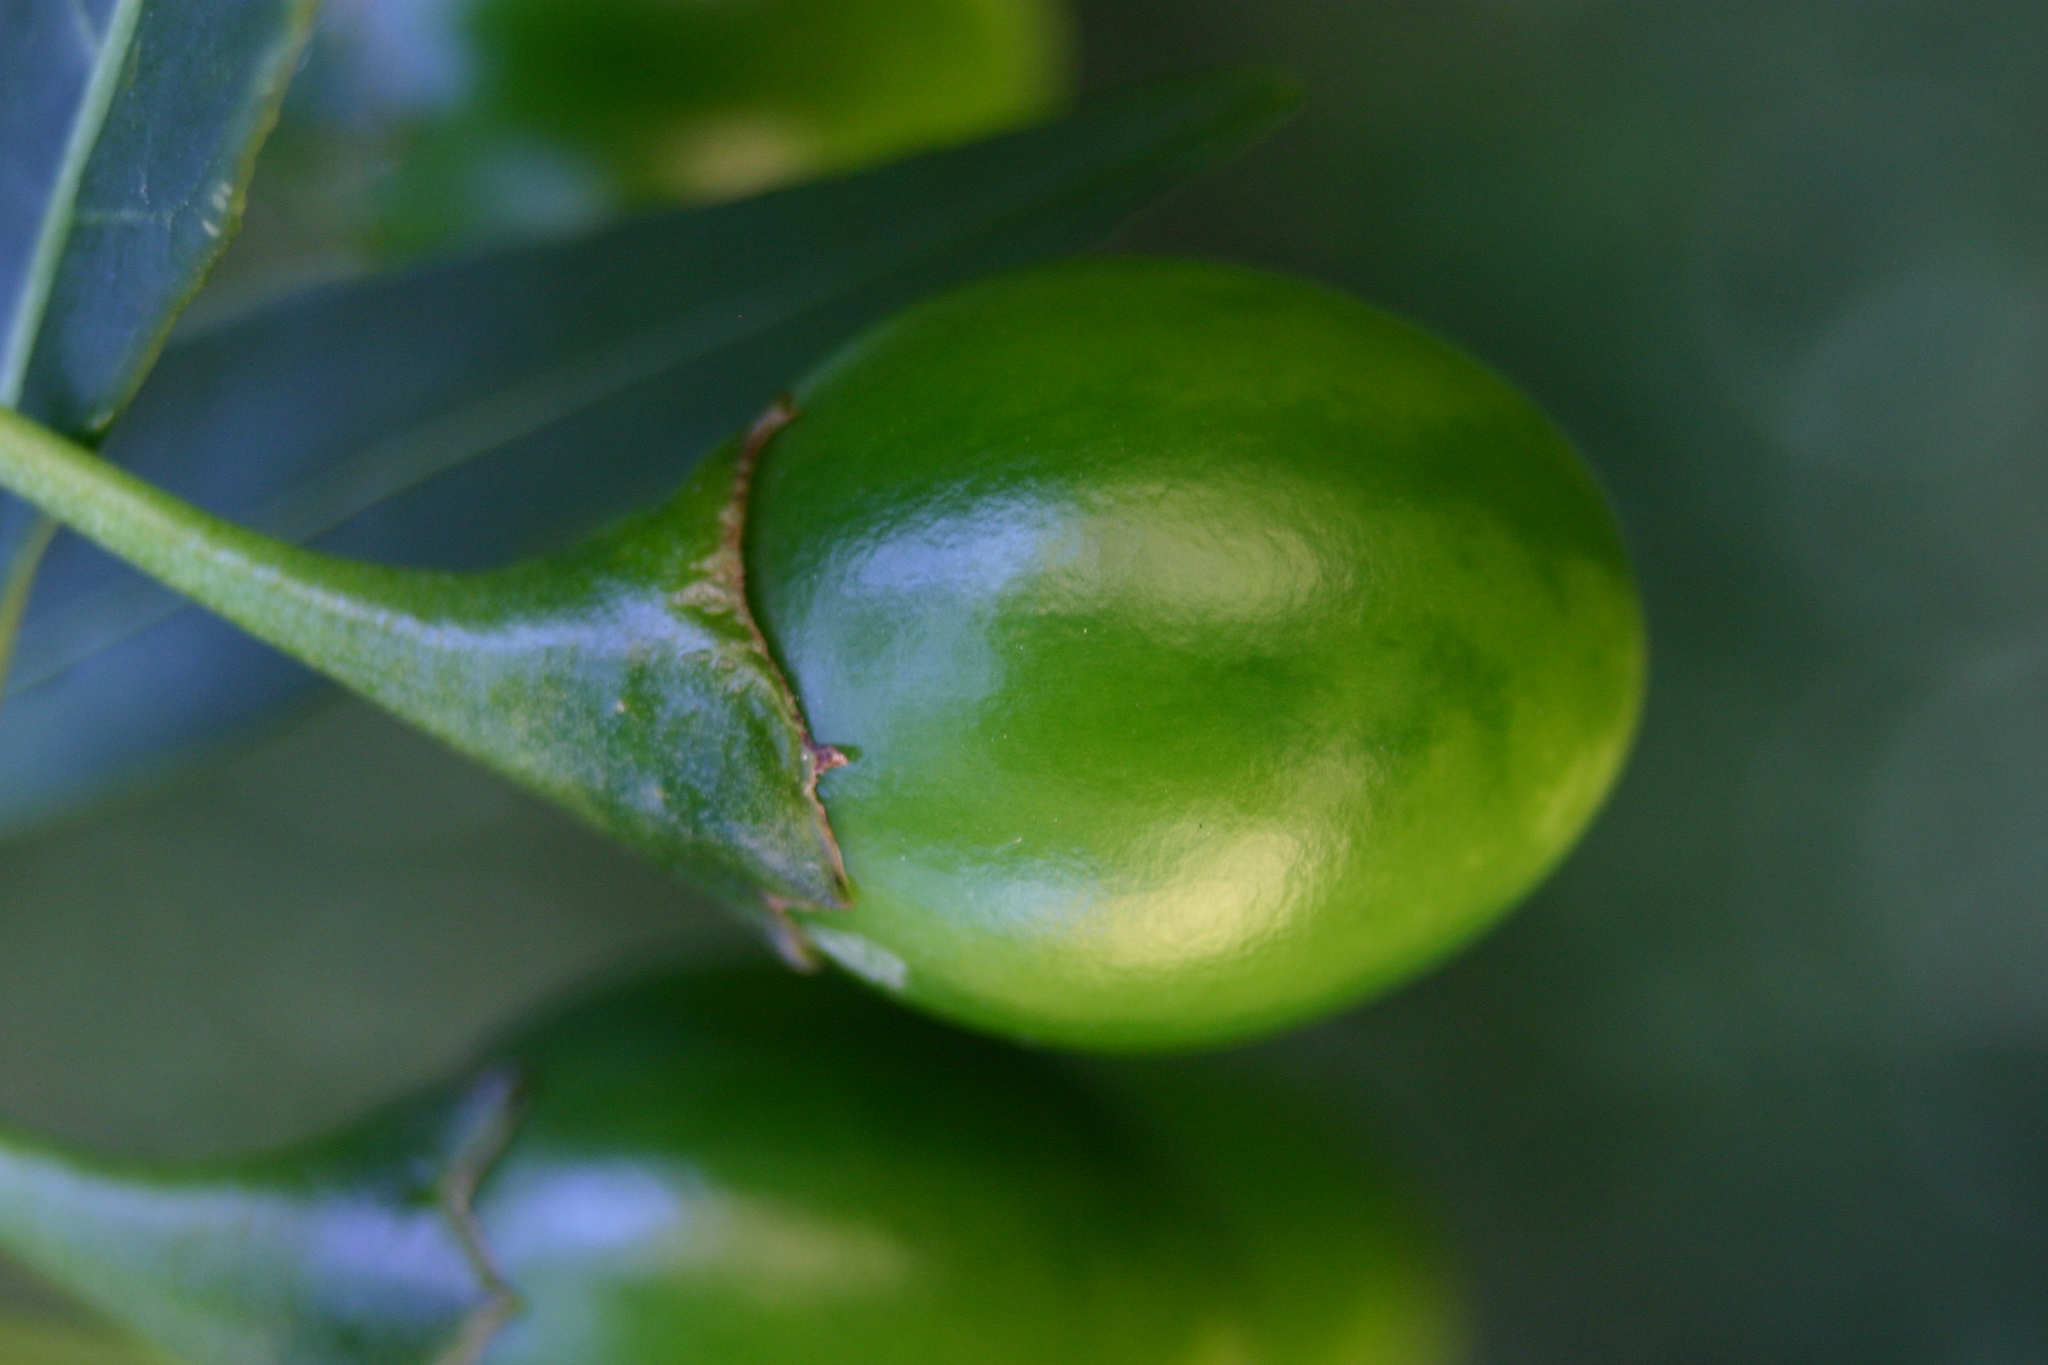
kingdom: Plantae
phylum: Tracheophyta
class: Magnoliopsida
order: Solanales
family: Solanaceae
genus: Solanum
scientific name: Solanum laciniatum
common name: Kangaroo-apple
